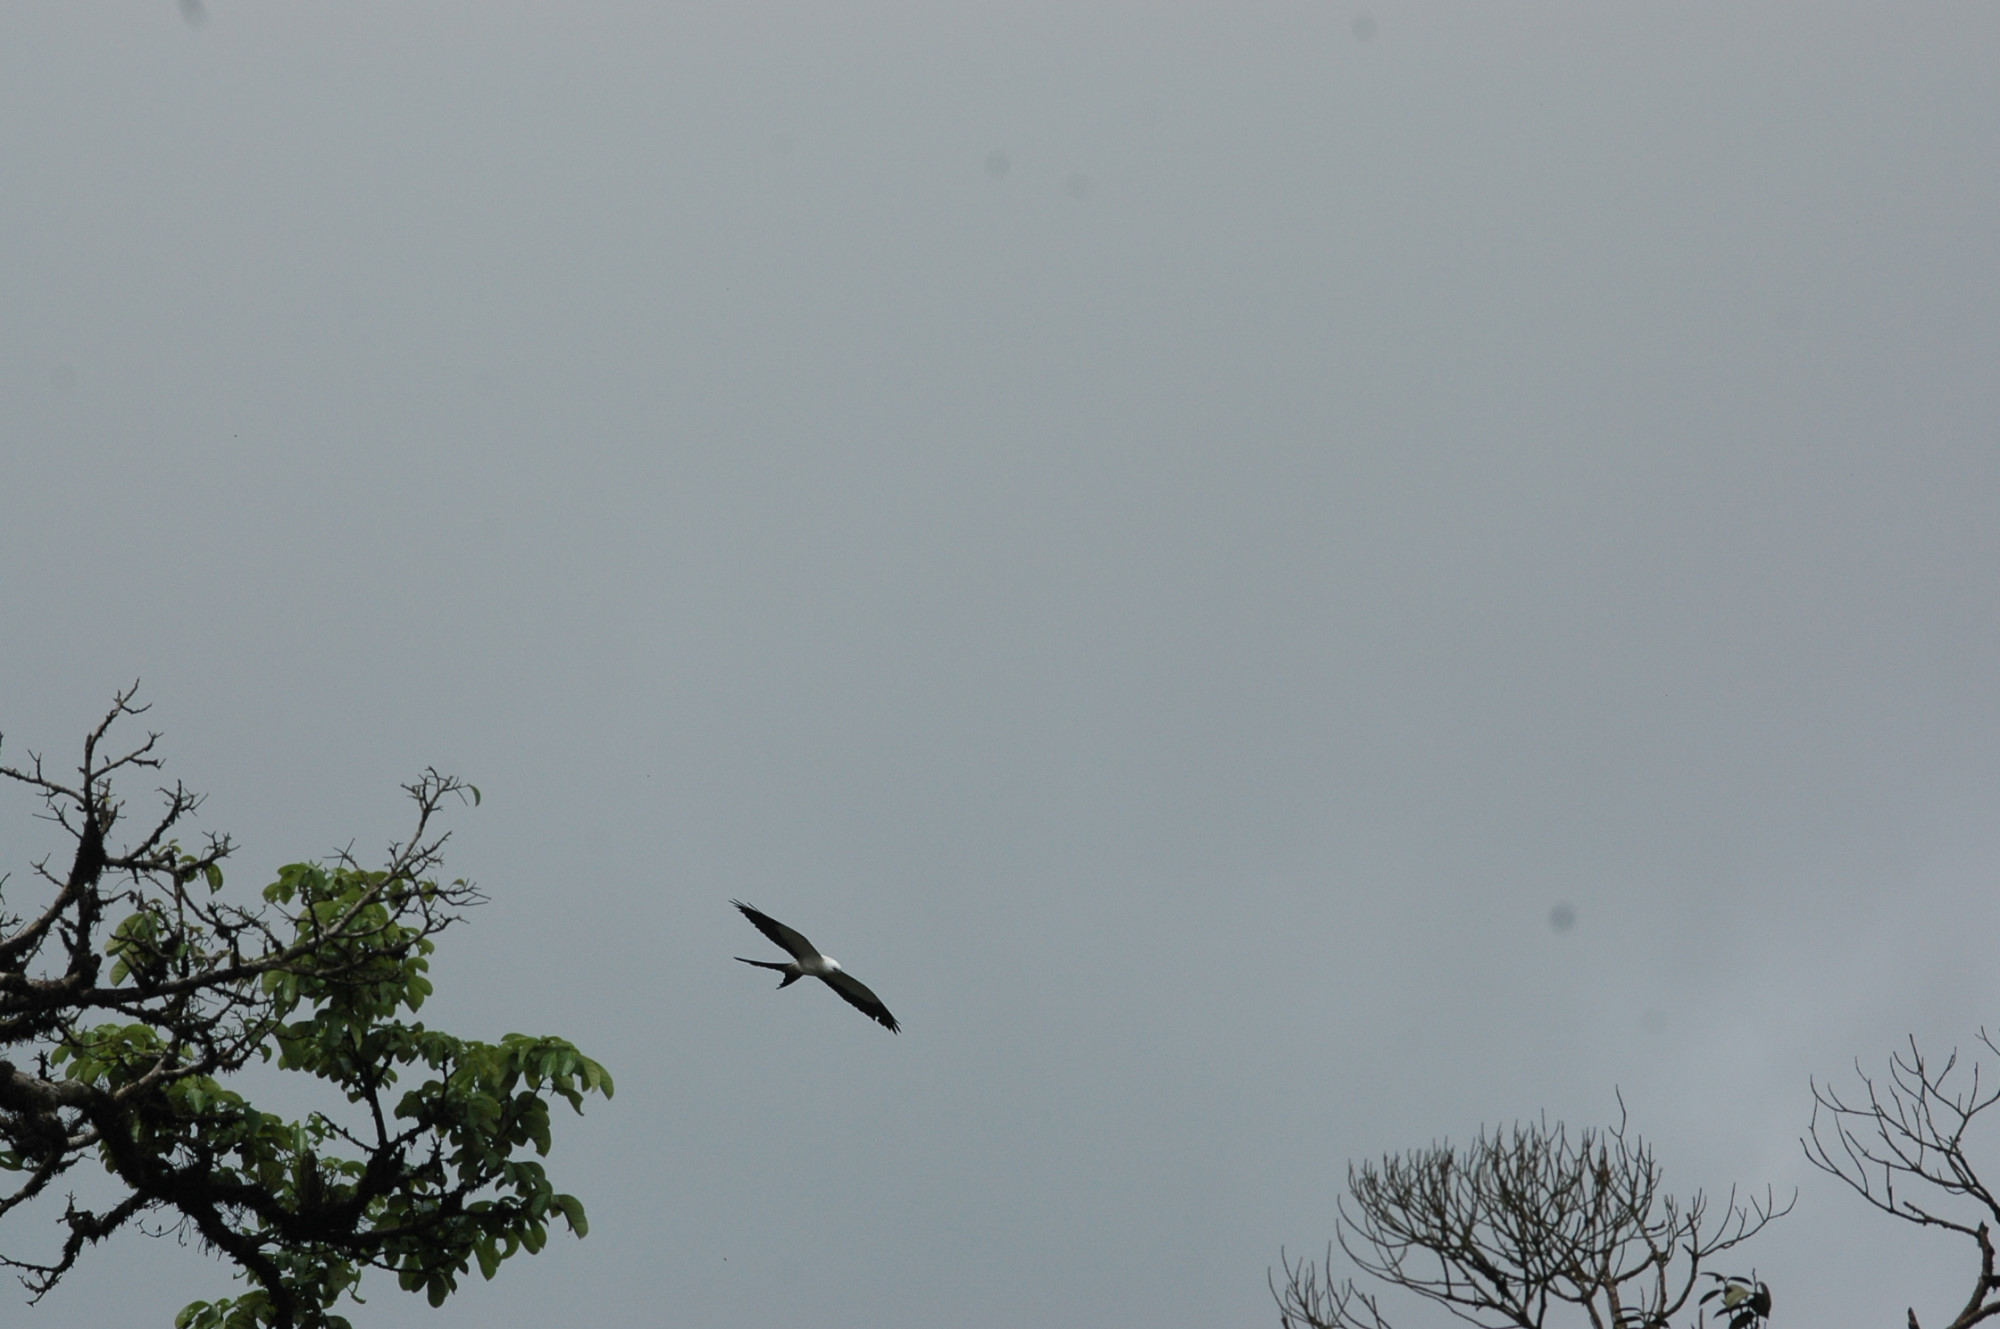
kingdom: Animalia
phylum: Chordata
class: Aves
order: Accipitriformes
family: Accipitridae
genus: Elanoides
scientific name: Elanoides forficatus
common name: Swallow-tailed kite
